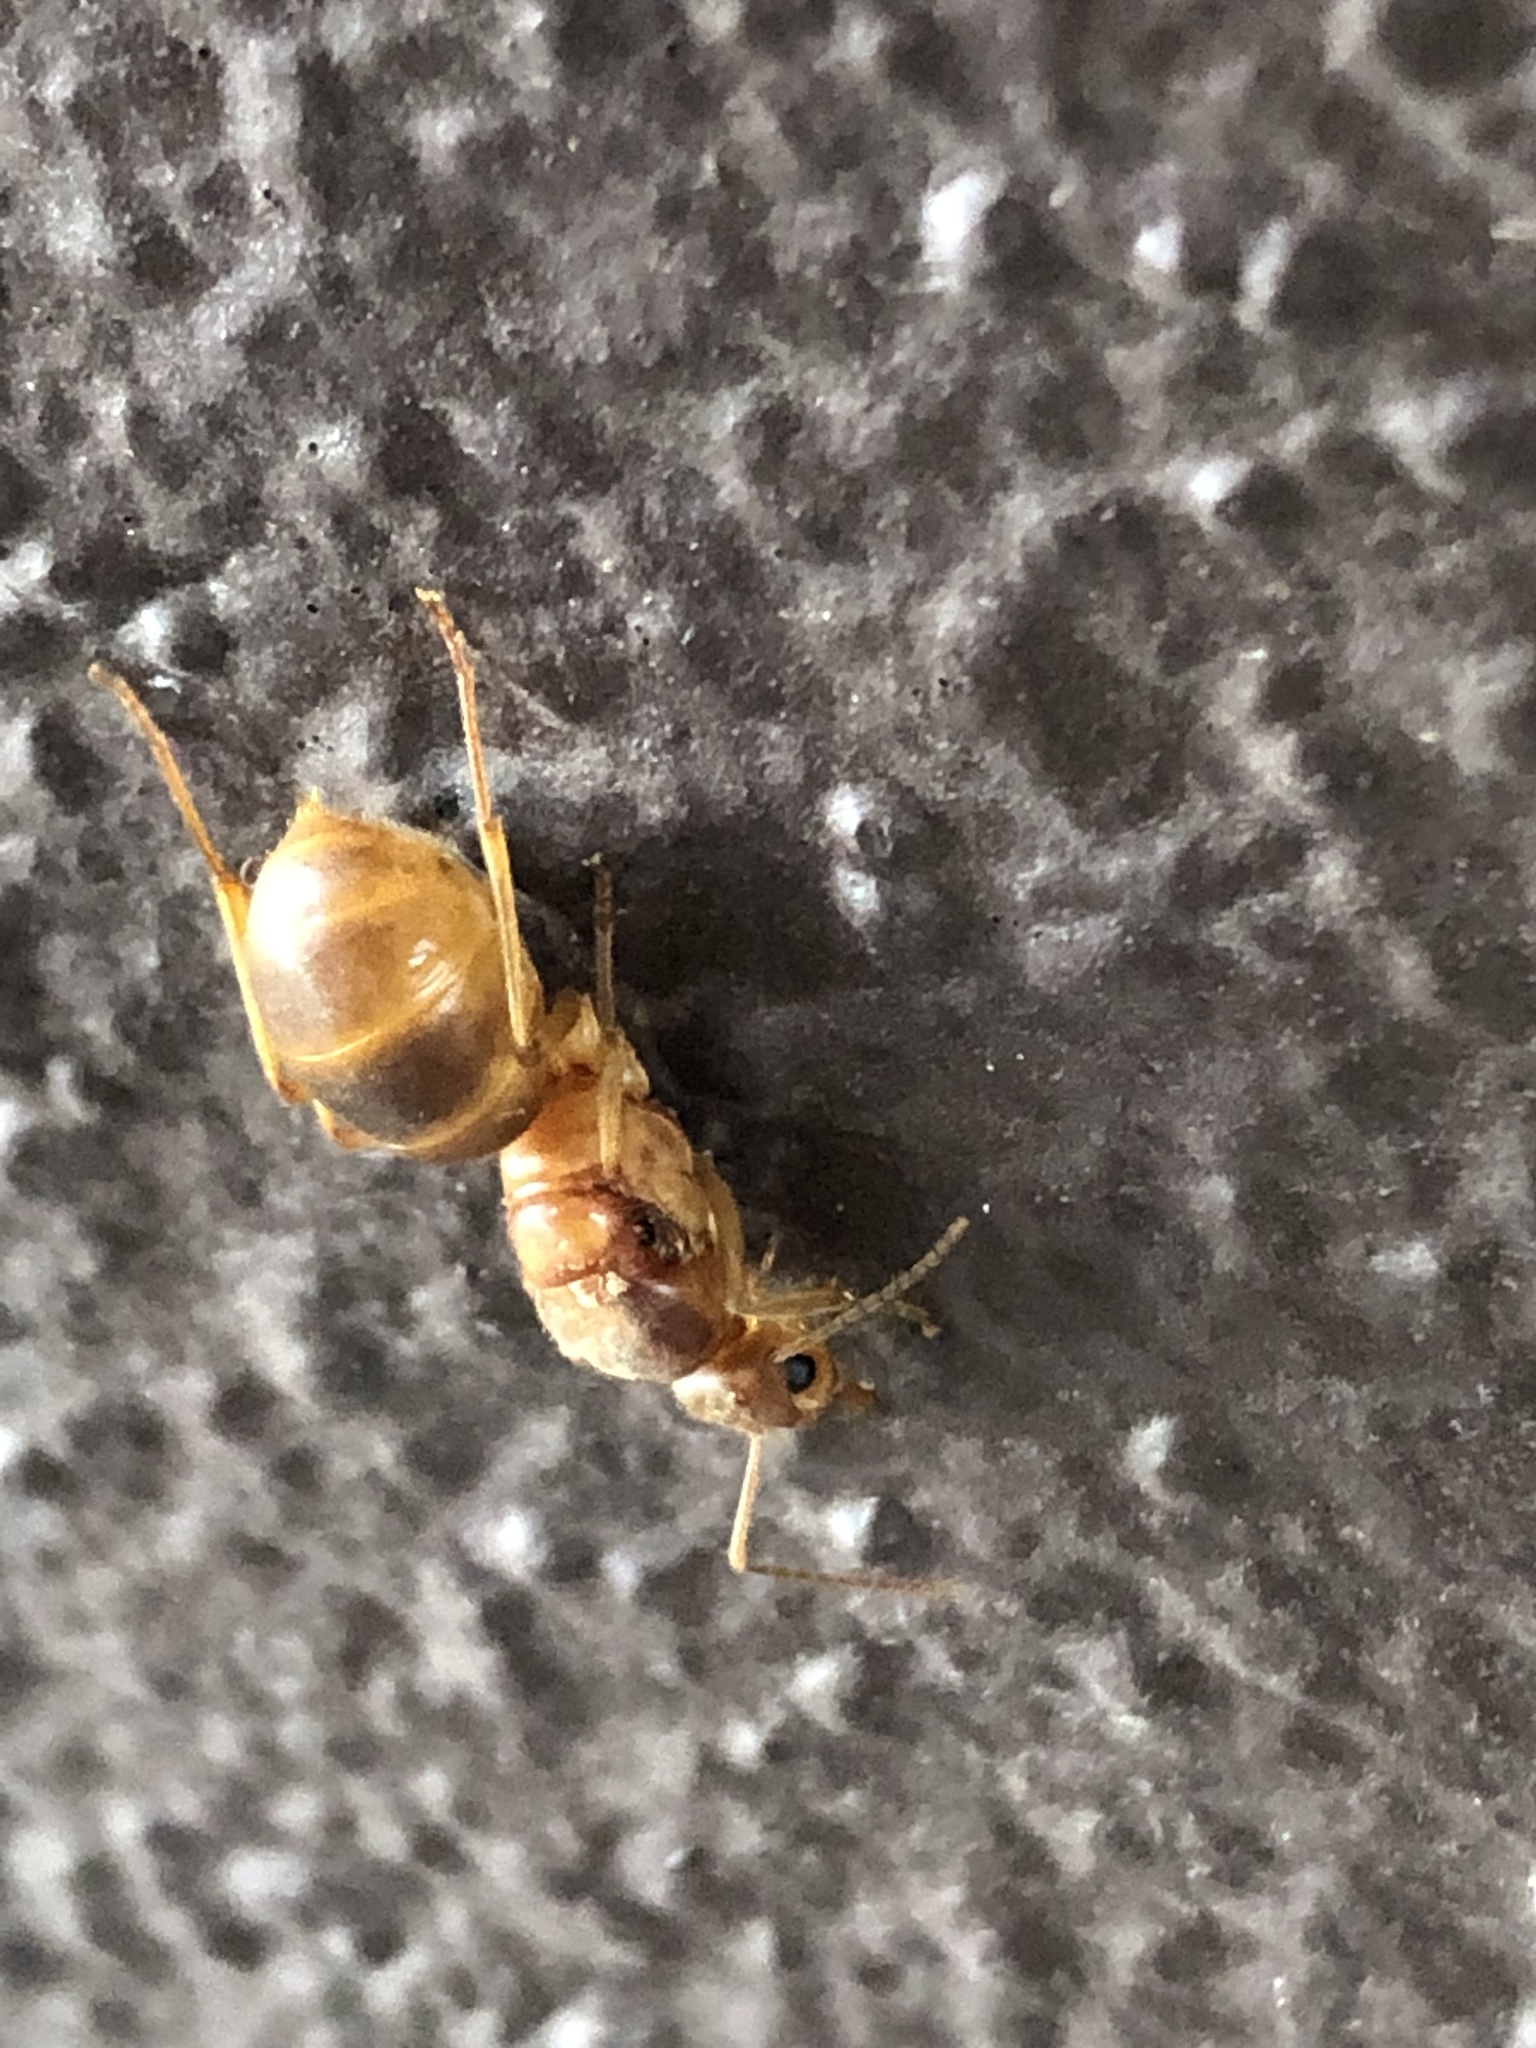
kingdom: Animalia
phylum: Arthropoda
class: Insecta
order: Hymenoptera
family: Formicidae
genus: Myrmecocystus
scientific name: Myrmecocystus mexicanus
